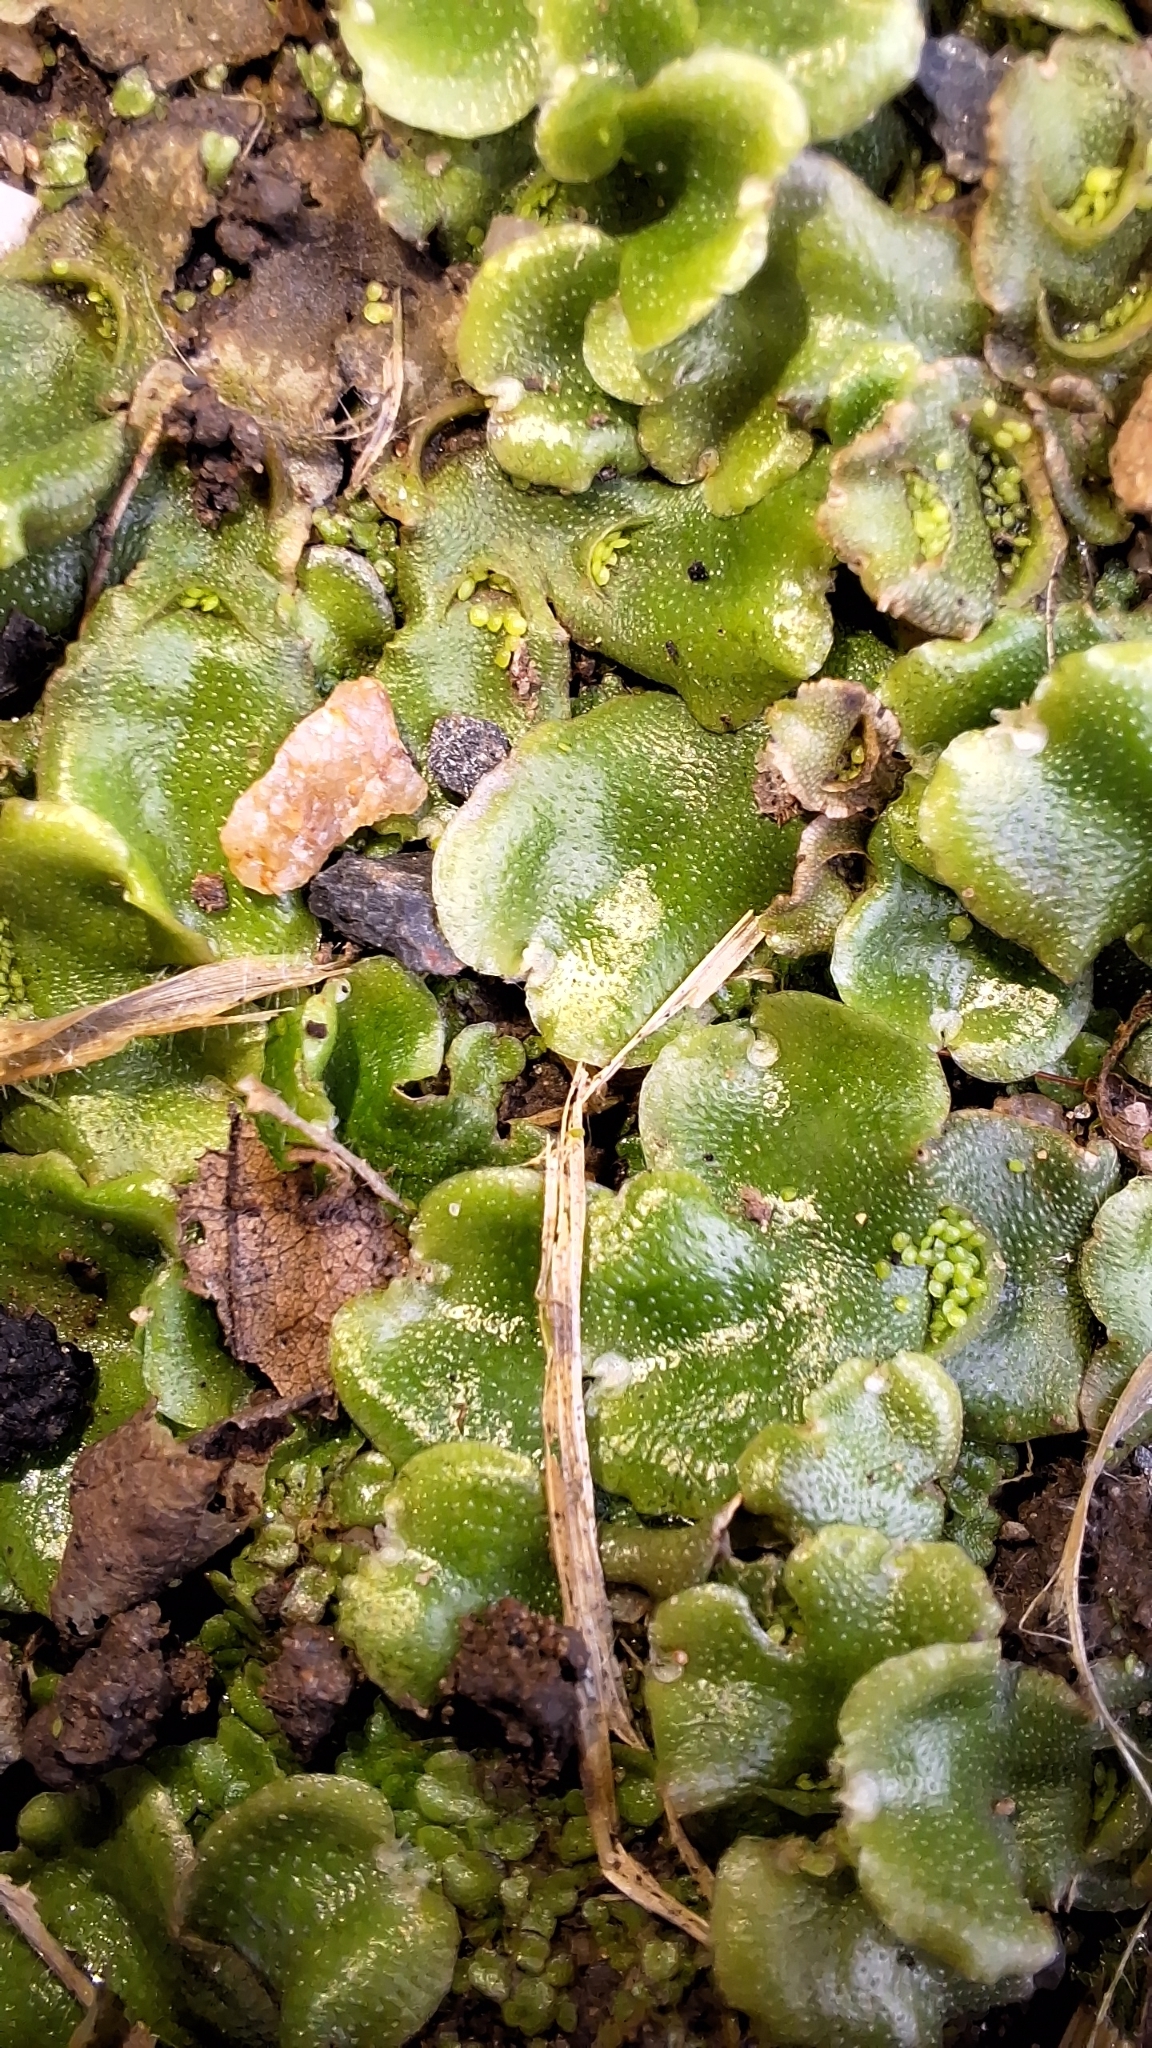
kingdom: Plantae
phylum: Marchantiophyta
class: Marchantiopsida
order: Lunulariales
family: Lunulariaceae
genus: Lunularia
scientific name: Lunularia cruciata
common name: Crescent-cup liverwort
